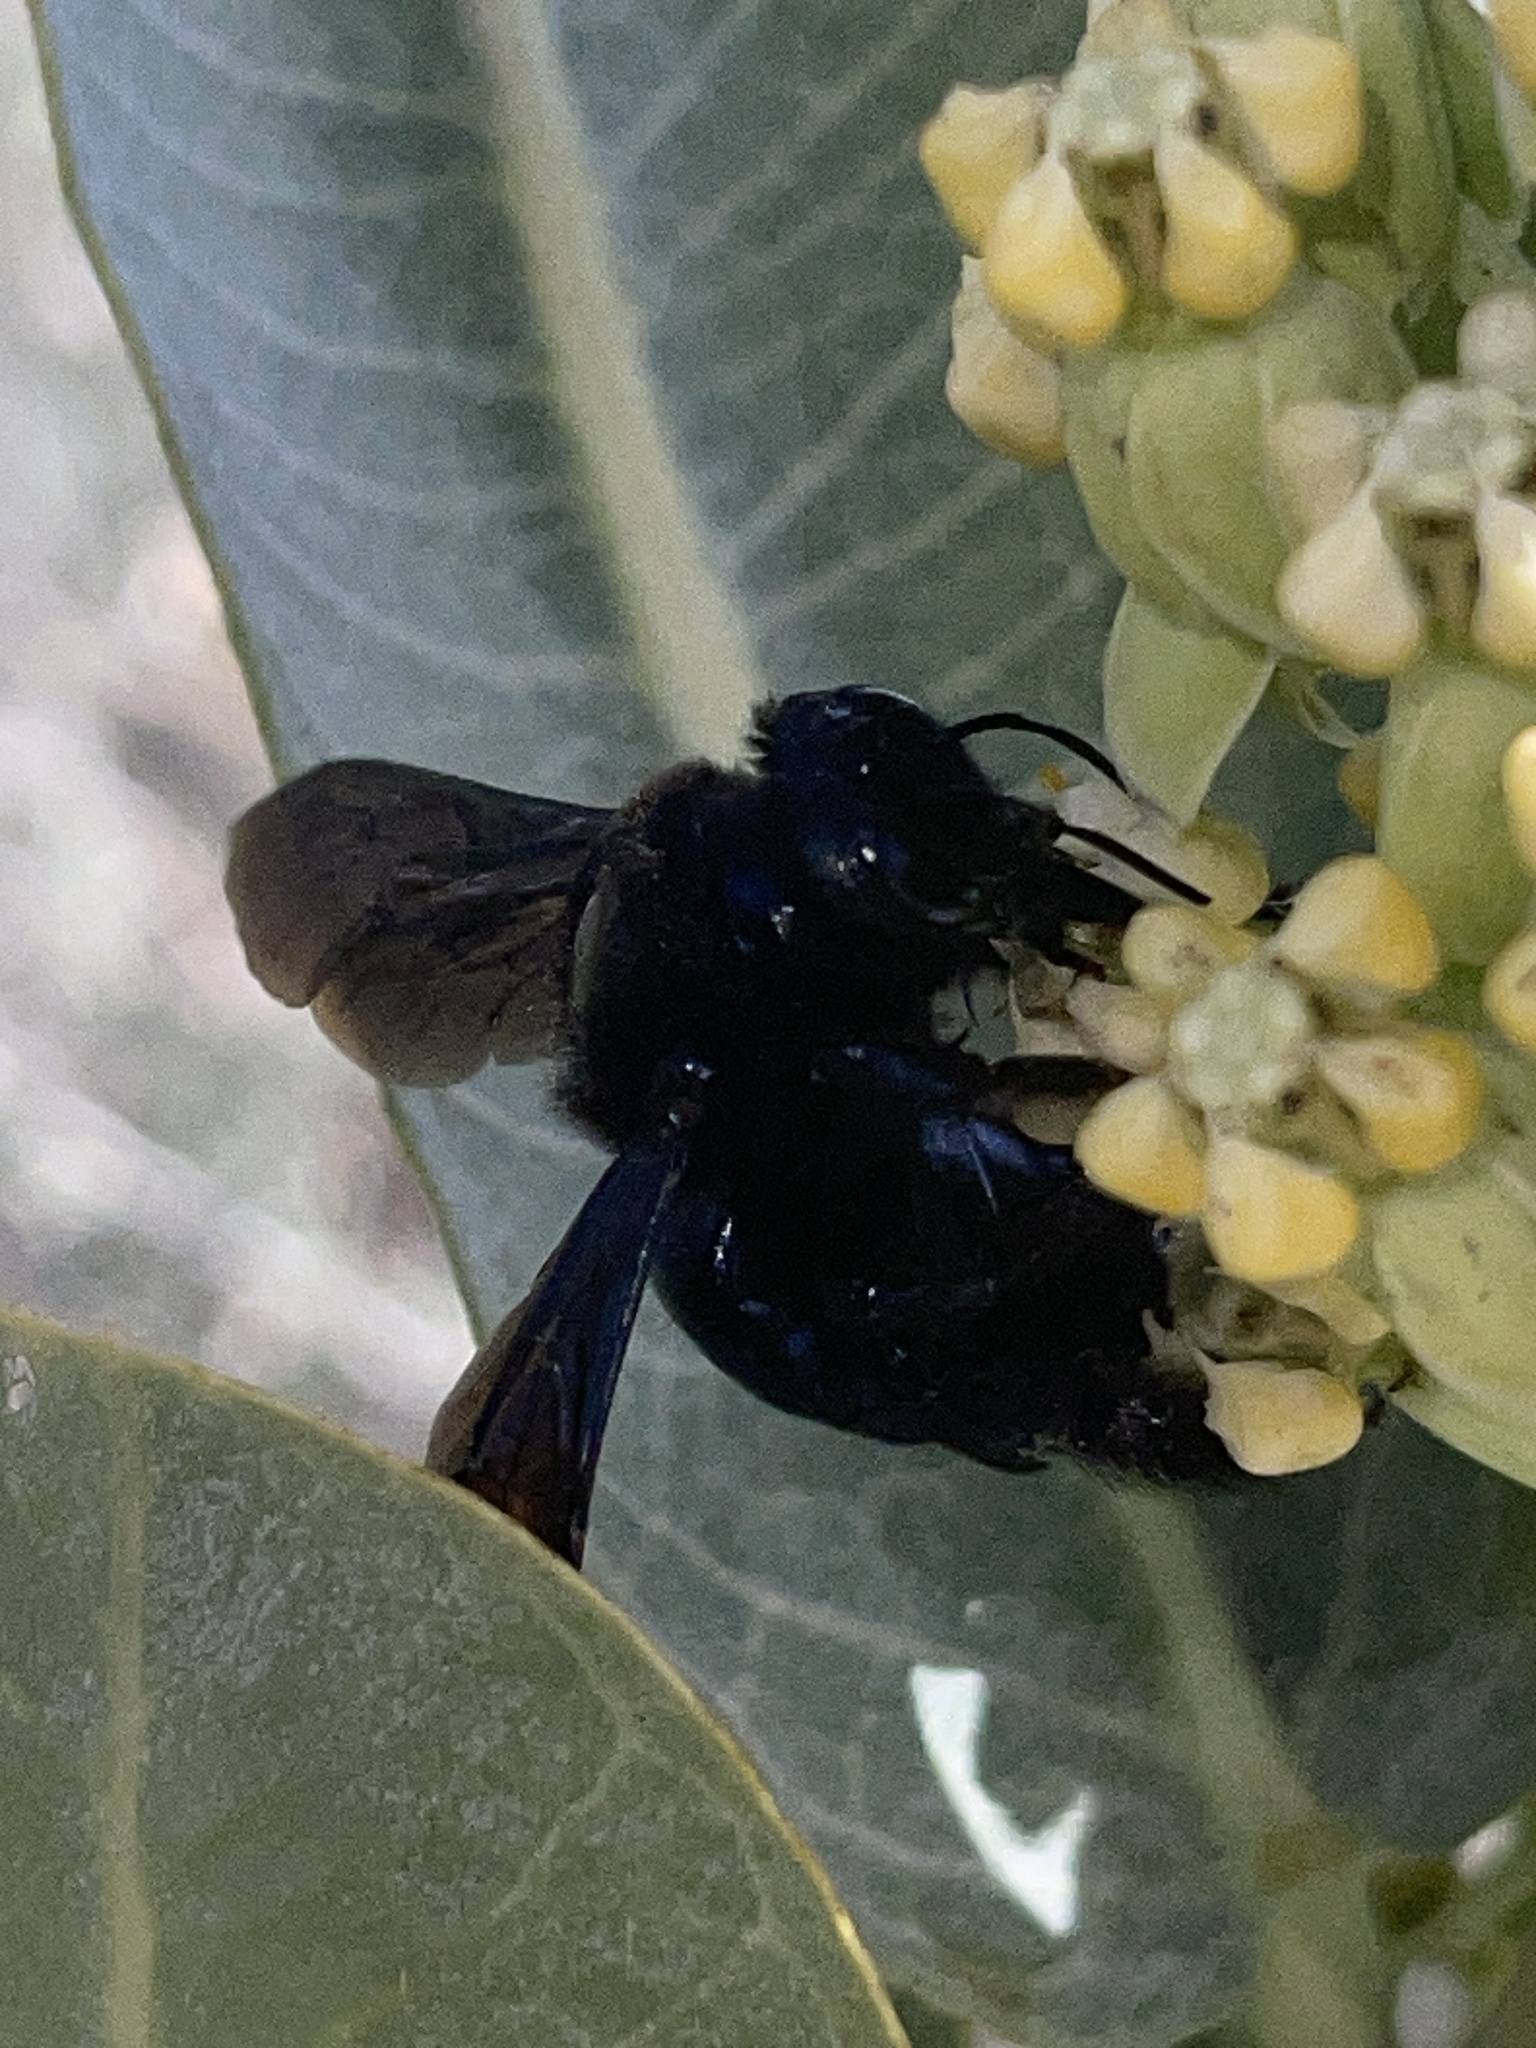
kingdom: Animalia
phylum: Arthropoda
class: Insecta
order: Hymenoptera
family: Apidae
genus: Xylocopa
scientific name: Xylocopa californica
